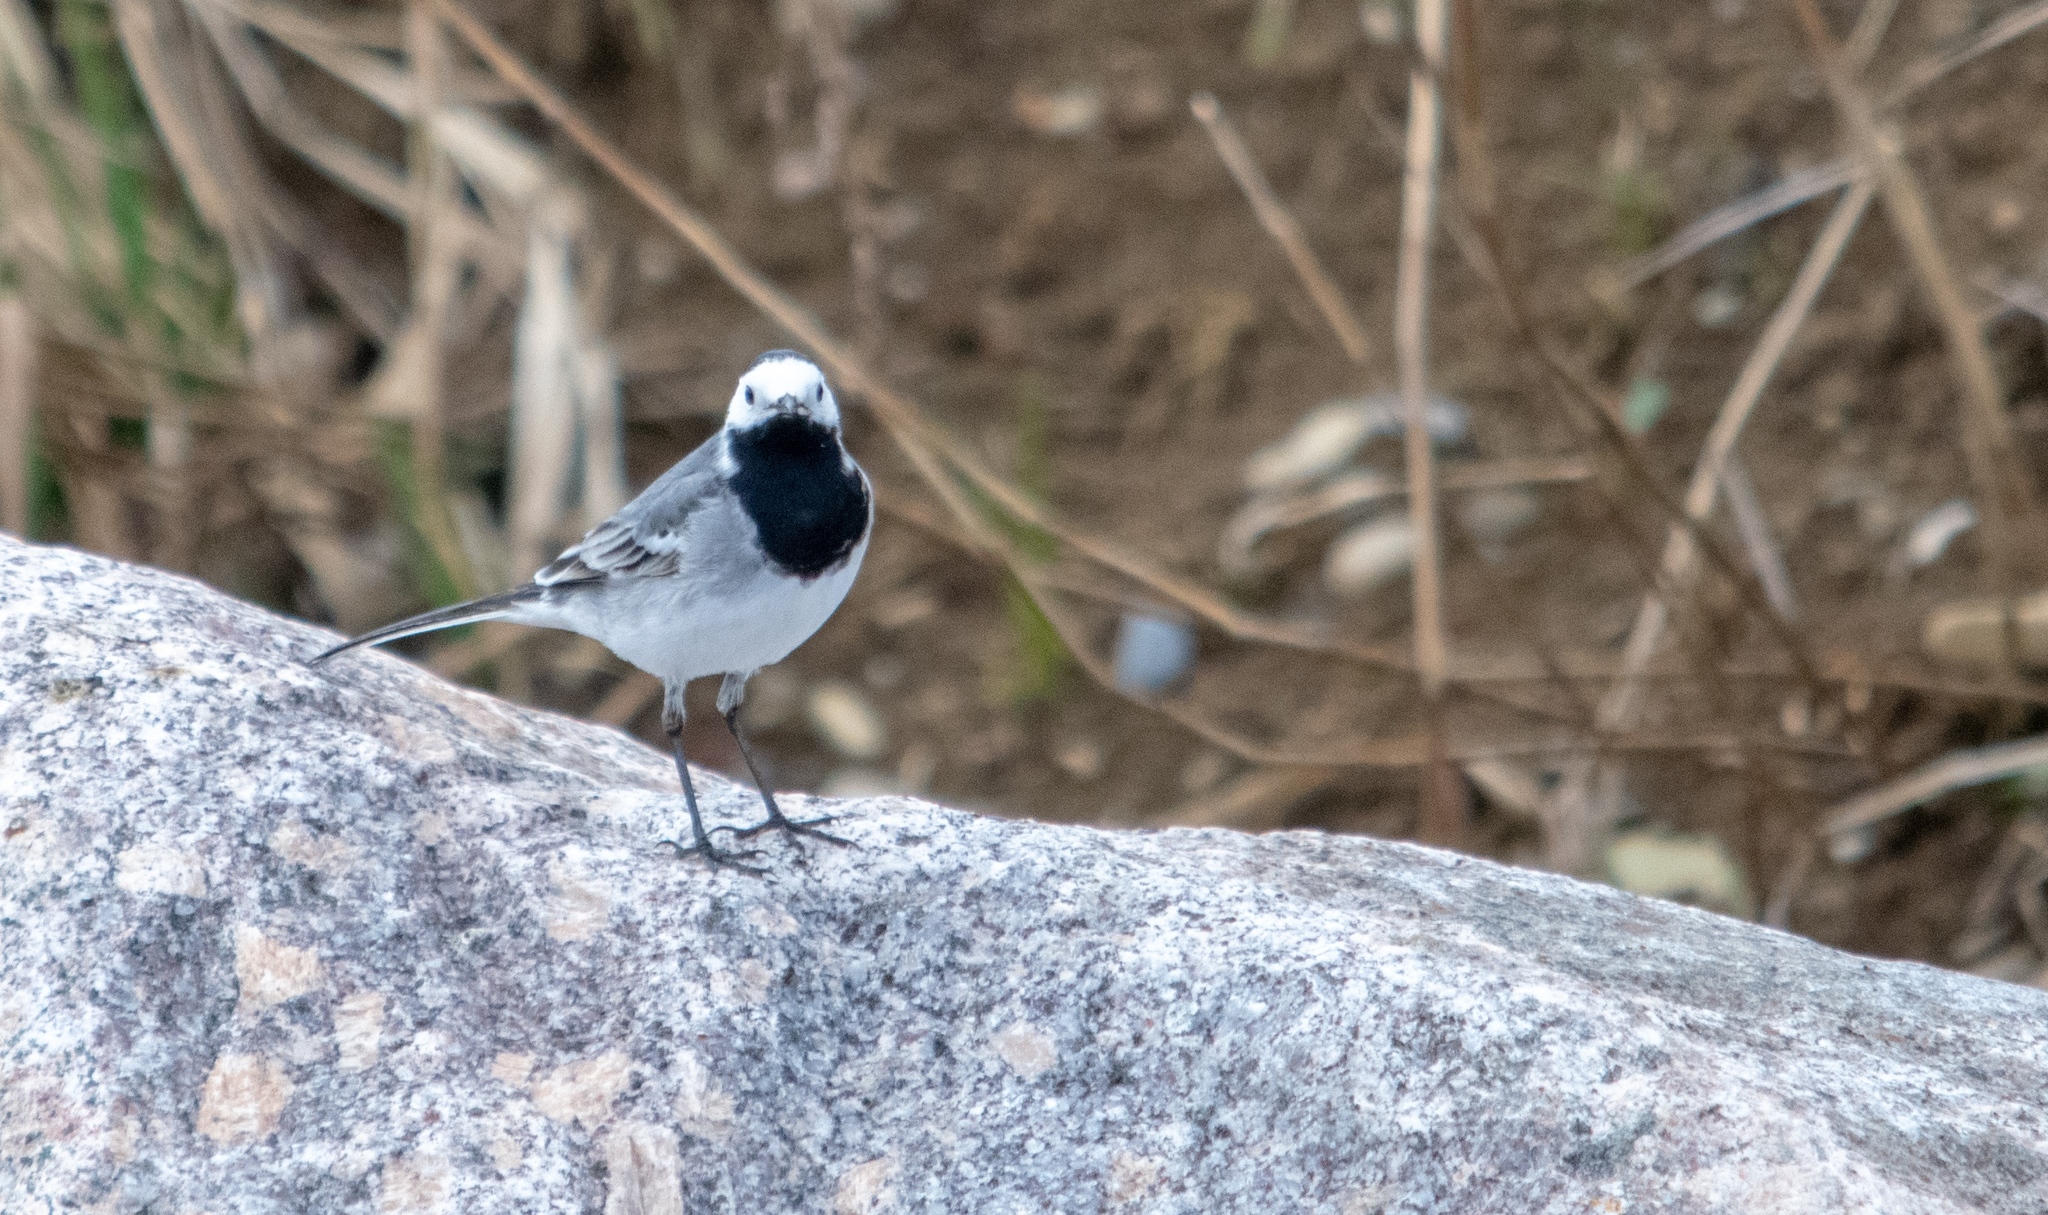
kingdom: Animalia
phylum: Chordata
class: Aves
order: Passeriformes
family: Motacillidae
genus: Motacilla
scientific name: Motacilla alba
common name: White wagtail
